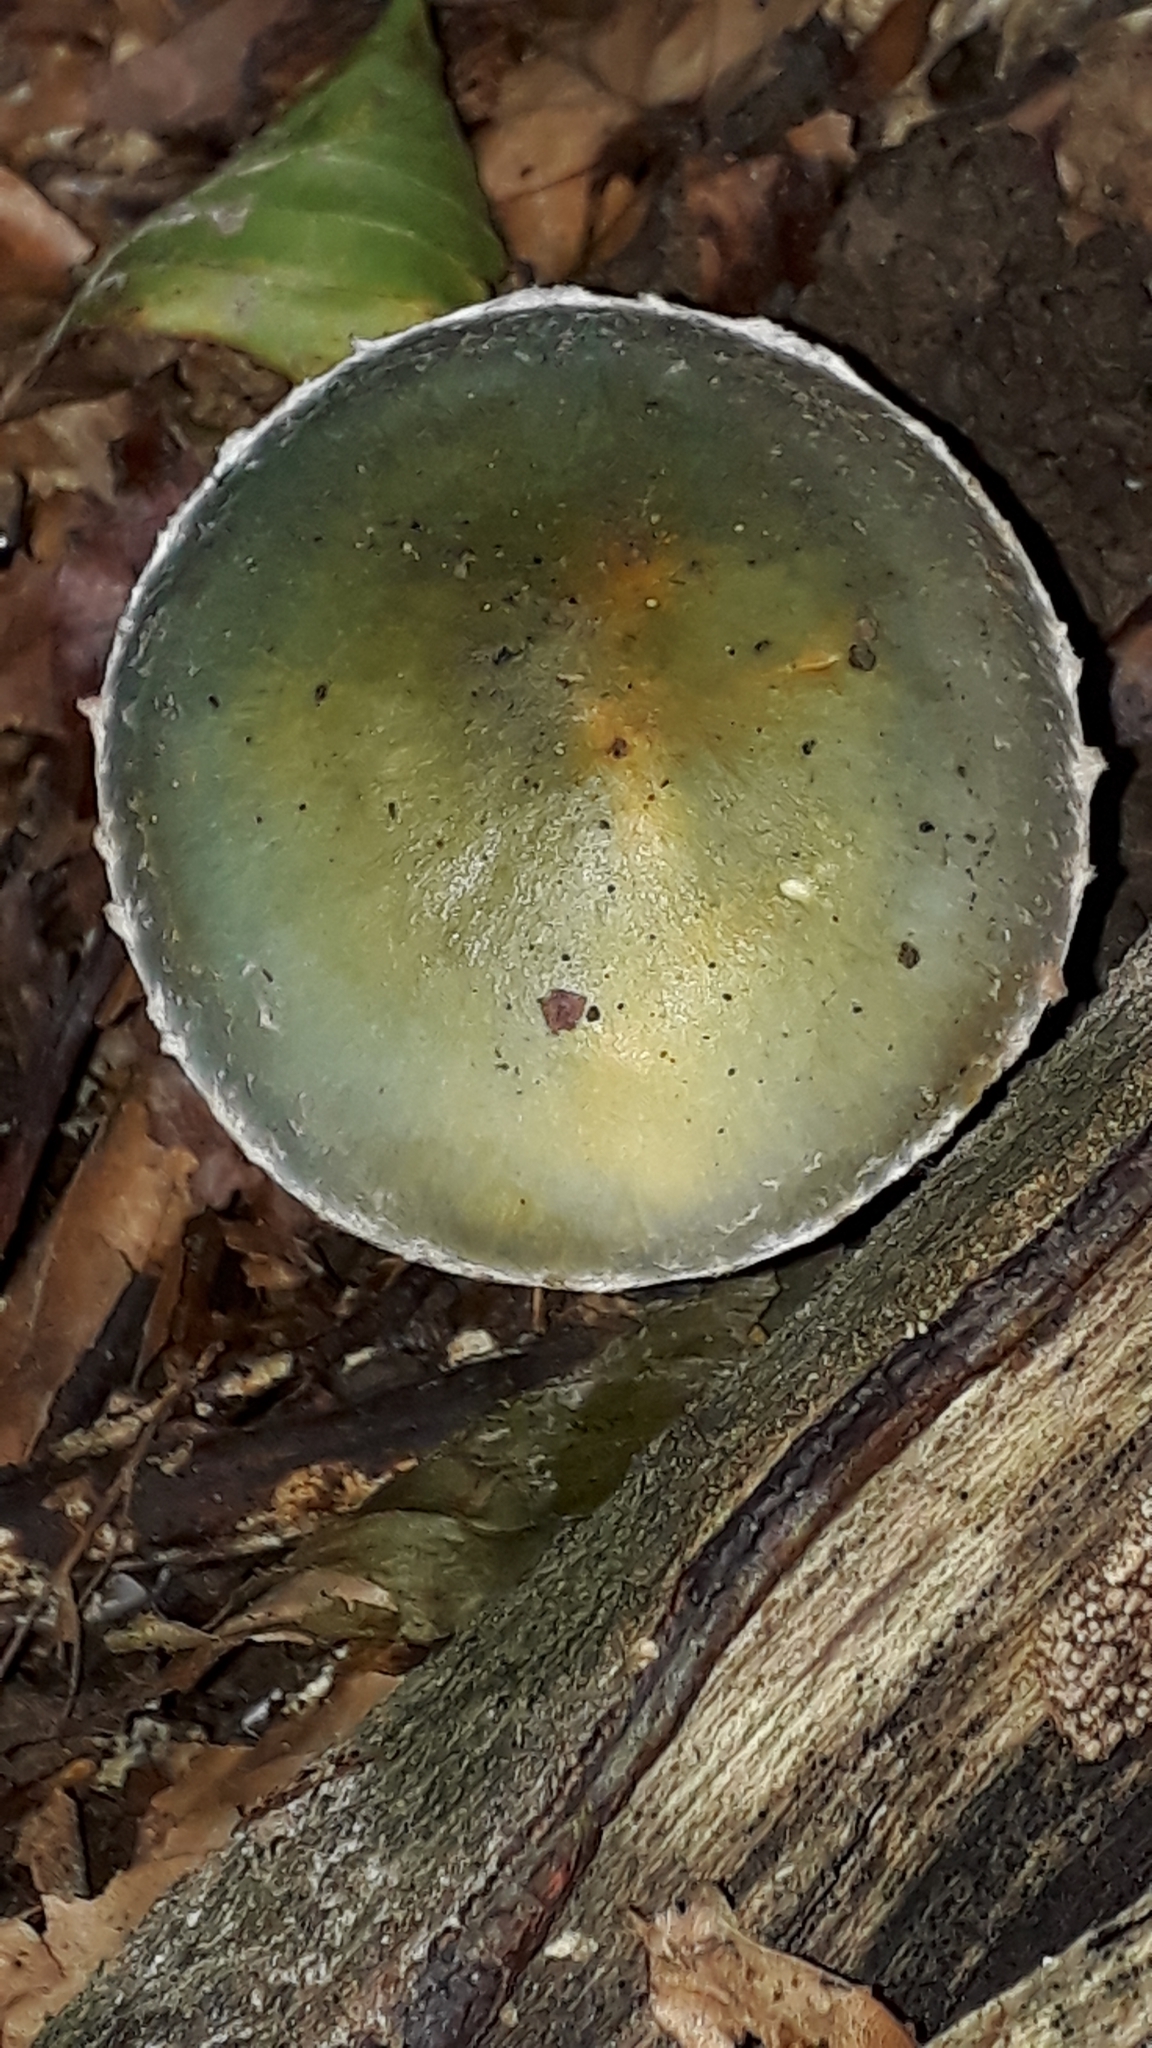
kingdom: Fungi
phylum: Basidiomycota
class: Agaricomycetes
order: Agaricales
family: Strophariaceae
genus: Stropharia
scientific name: Stropharia aeruginosa
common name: Verdigris roundhead
